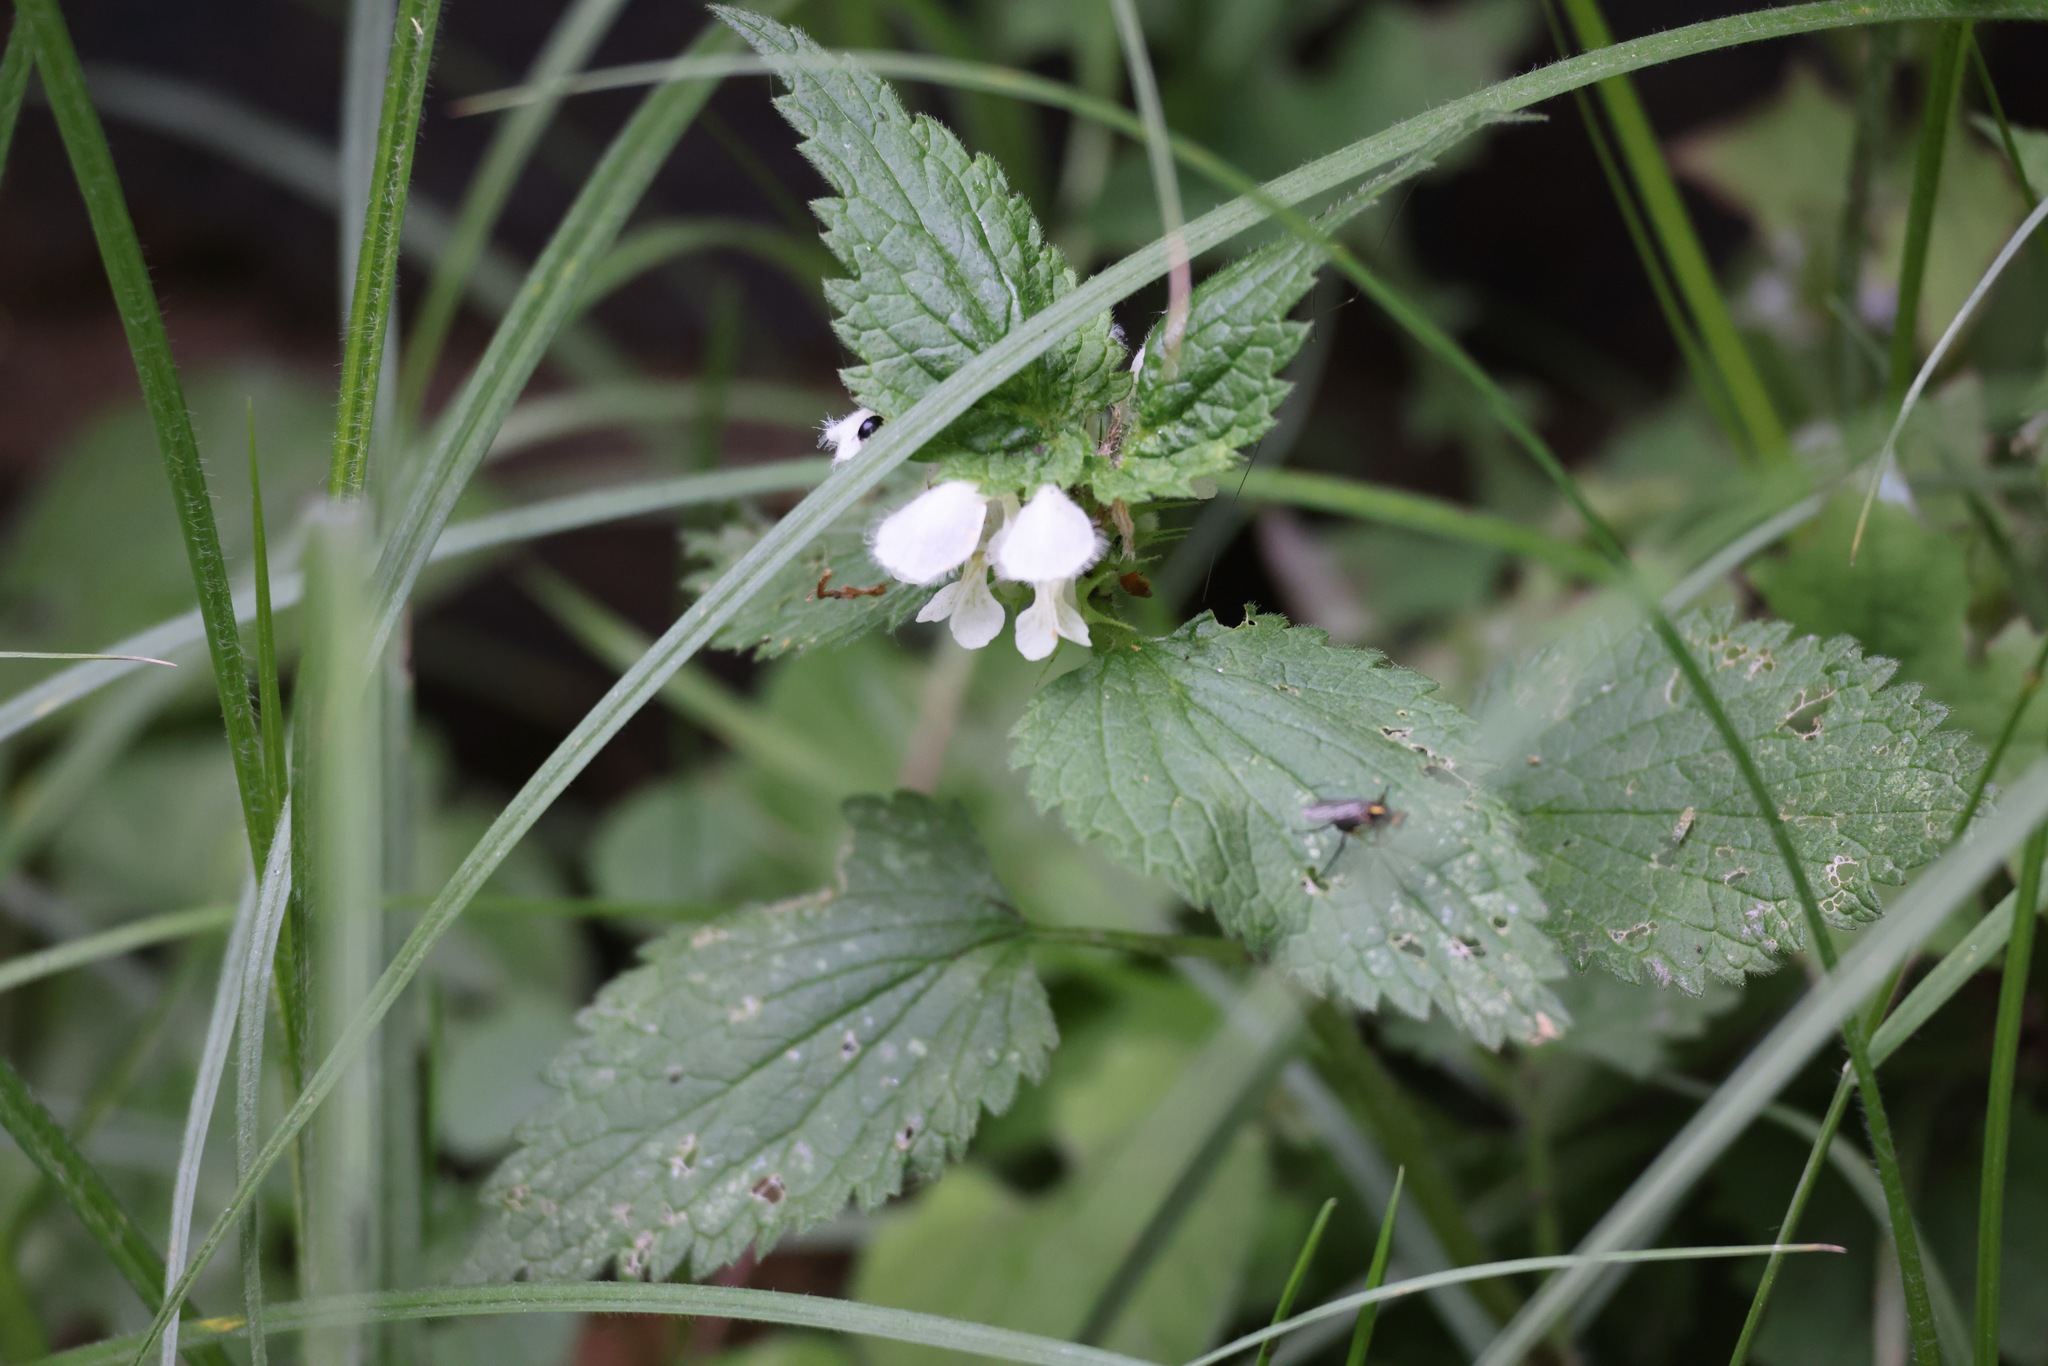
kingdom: Plantae
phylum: Tracheophyta
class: Magnoliopsida
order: Lamiales
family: Lamiaceae
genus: Lamium
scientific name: Lamium album
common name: White dead-nettle
